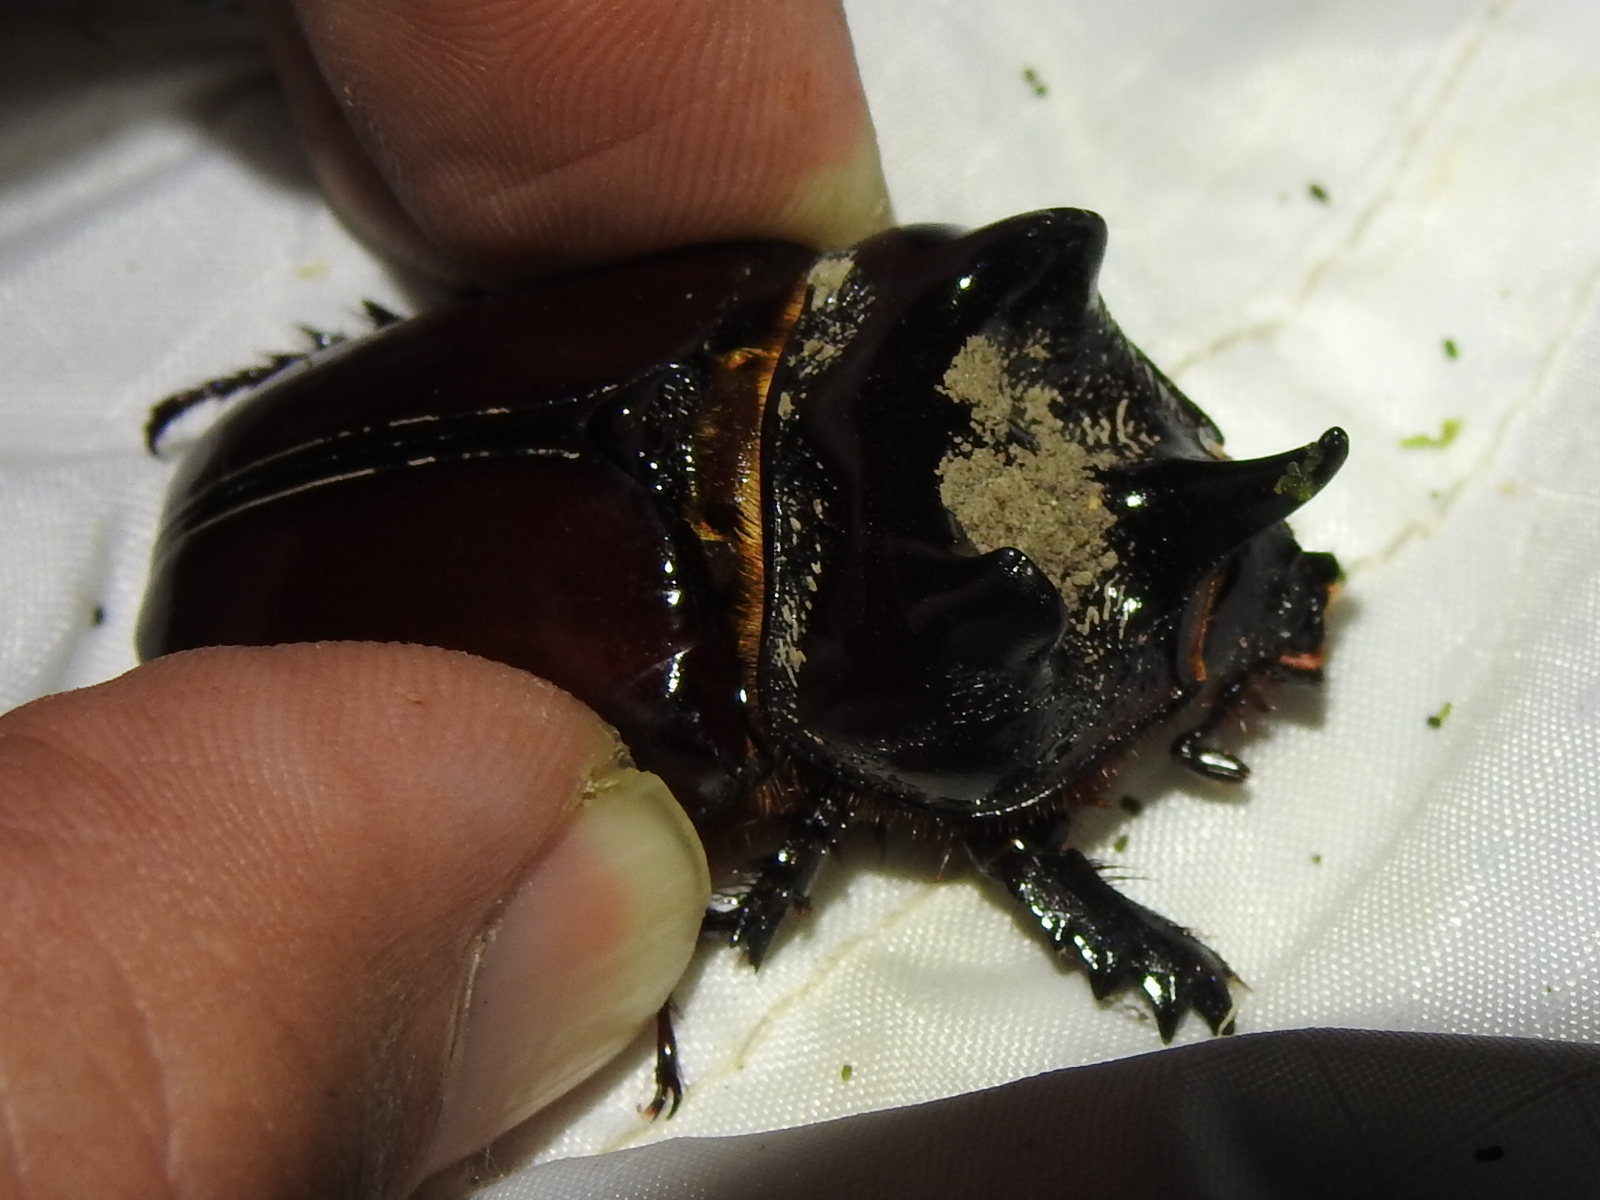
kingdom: Animalia
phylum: Arthropoda
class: Insecta
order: Coleoptera
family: Scarabaeidae
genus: Strategus
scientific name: Strategus aloeus
